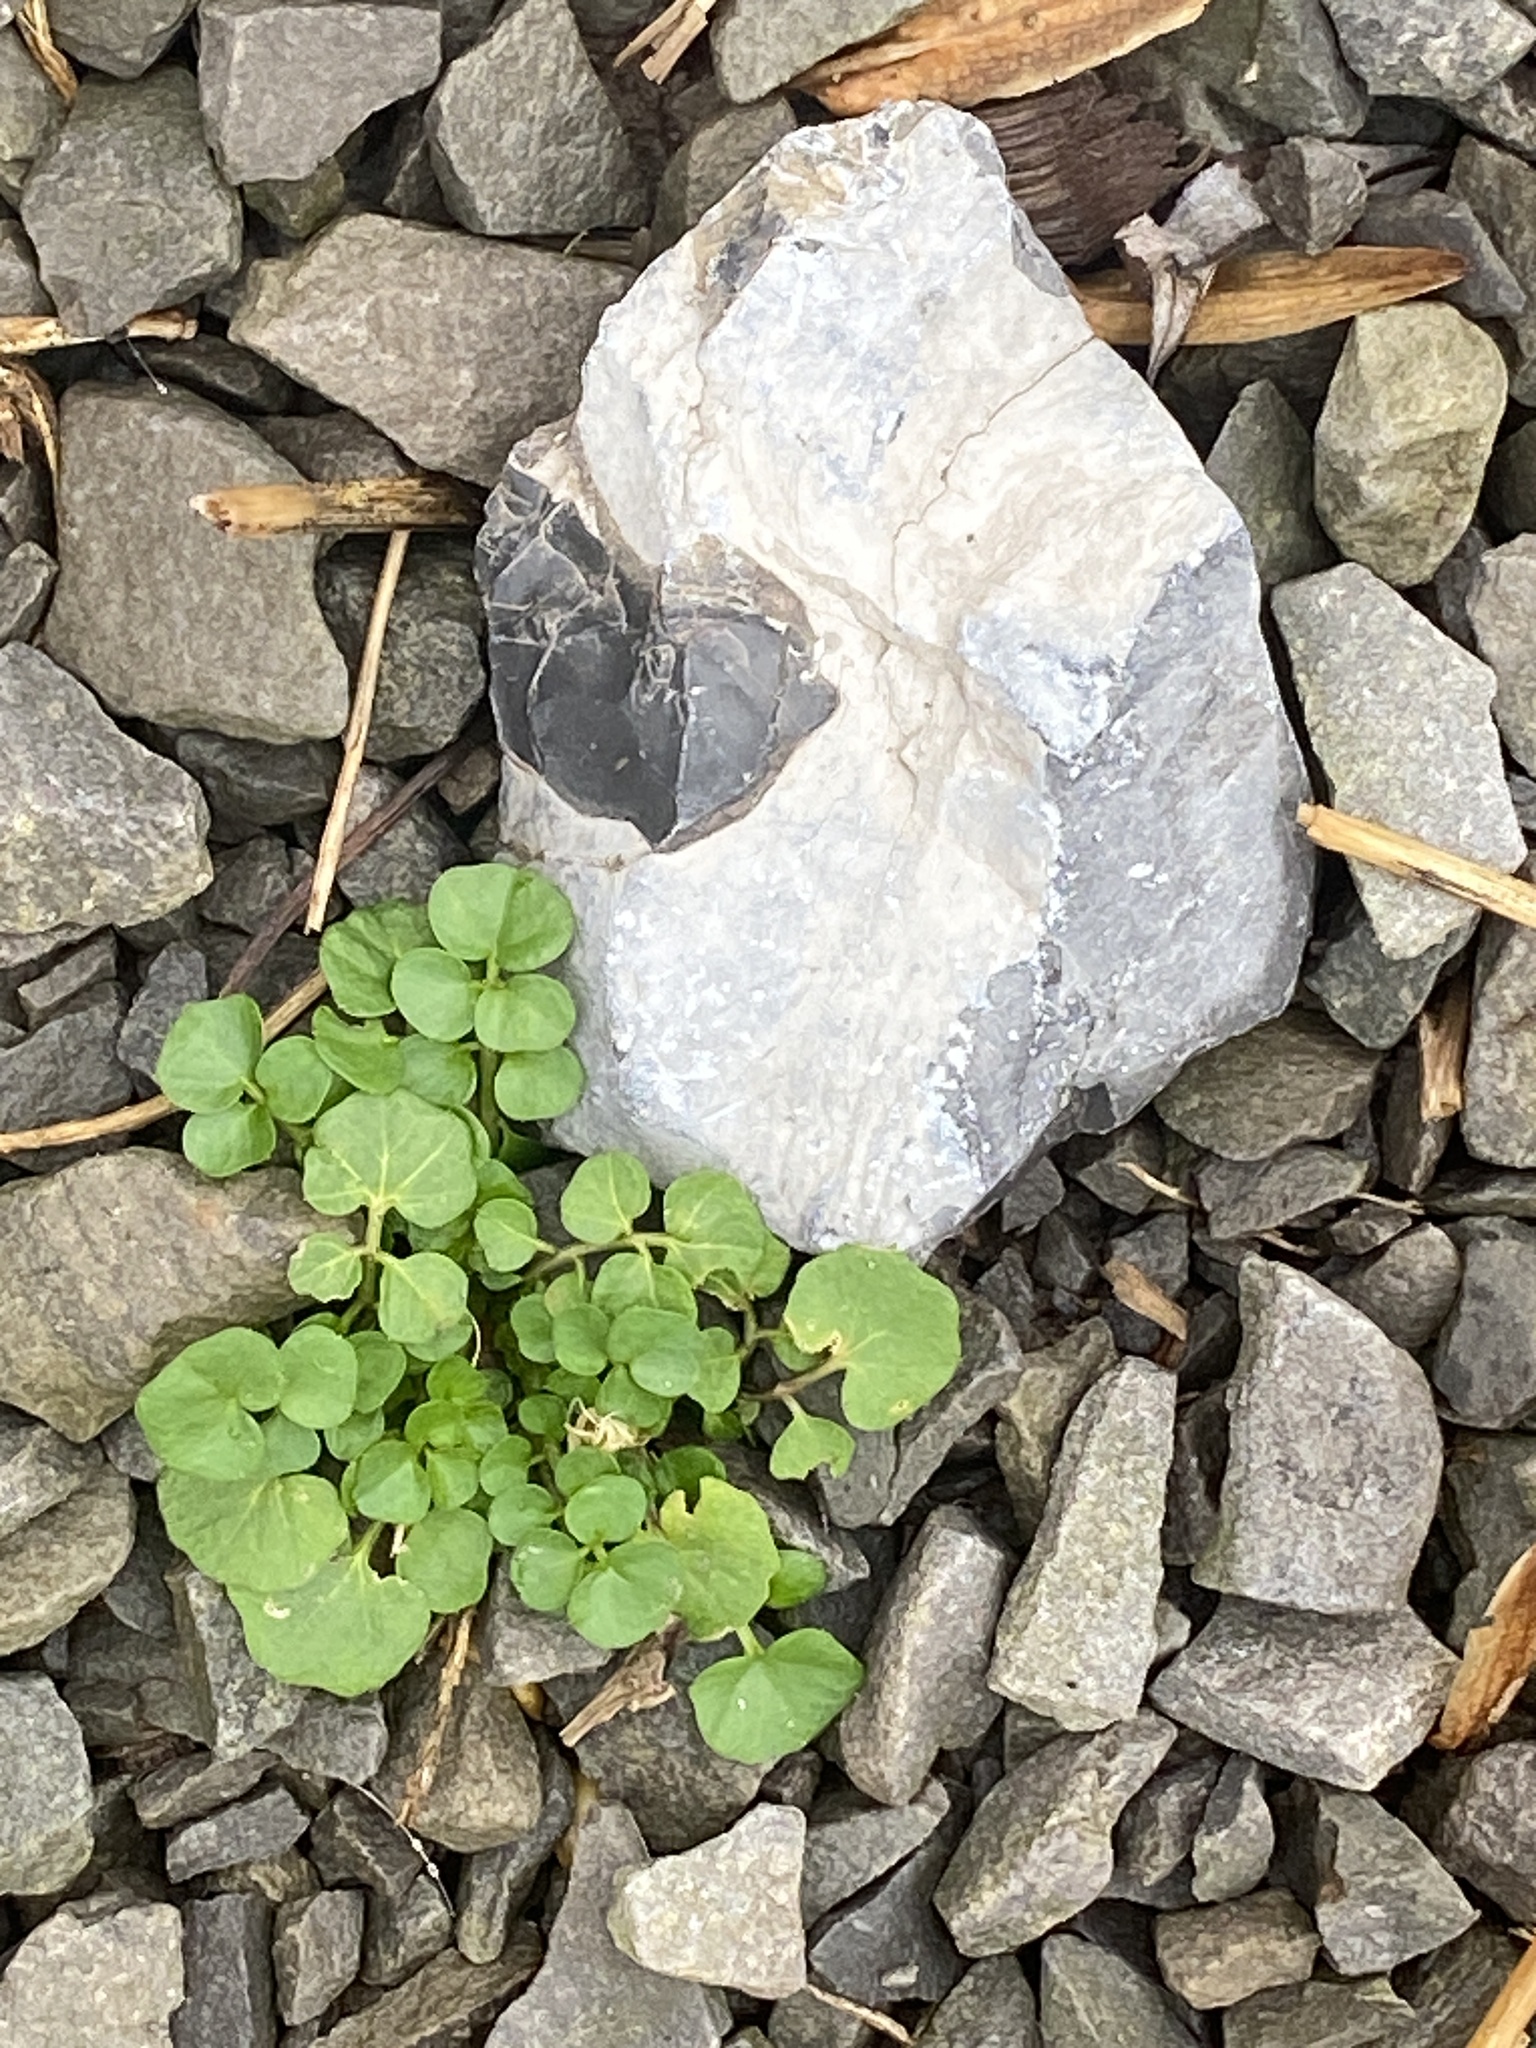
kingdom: Plantae
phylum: Tracheophyta
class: Magnoliopsida
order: Brassicales
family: Brassicaceae
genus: Cardamine
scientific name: Cardamine hirsuta
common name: Hairy bittercress
